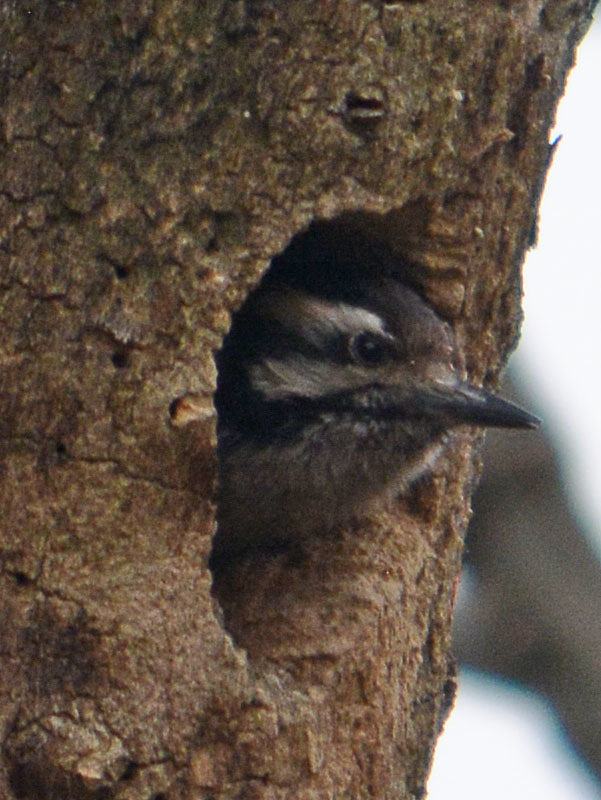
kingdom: Animalia
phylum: Chordata
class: Aves
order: Piciformes
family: Picidae
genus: Dryobates
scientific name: Dryobates scalaris
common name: Ladder-backed woodpecker
